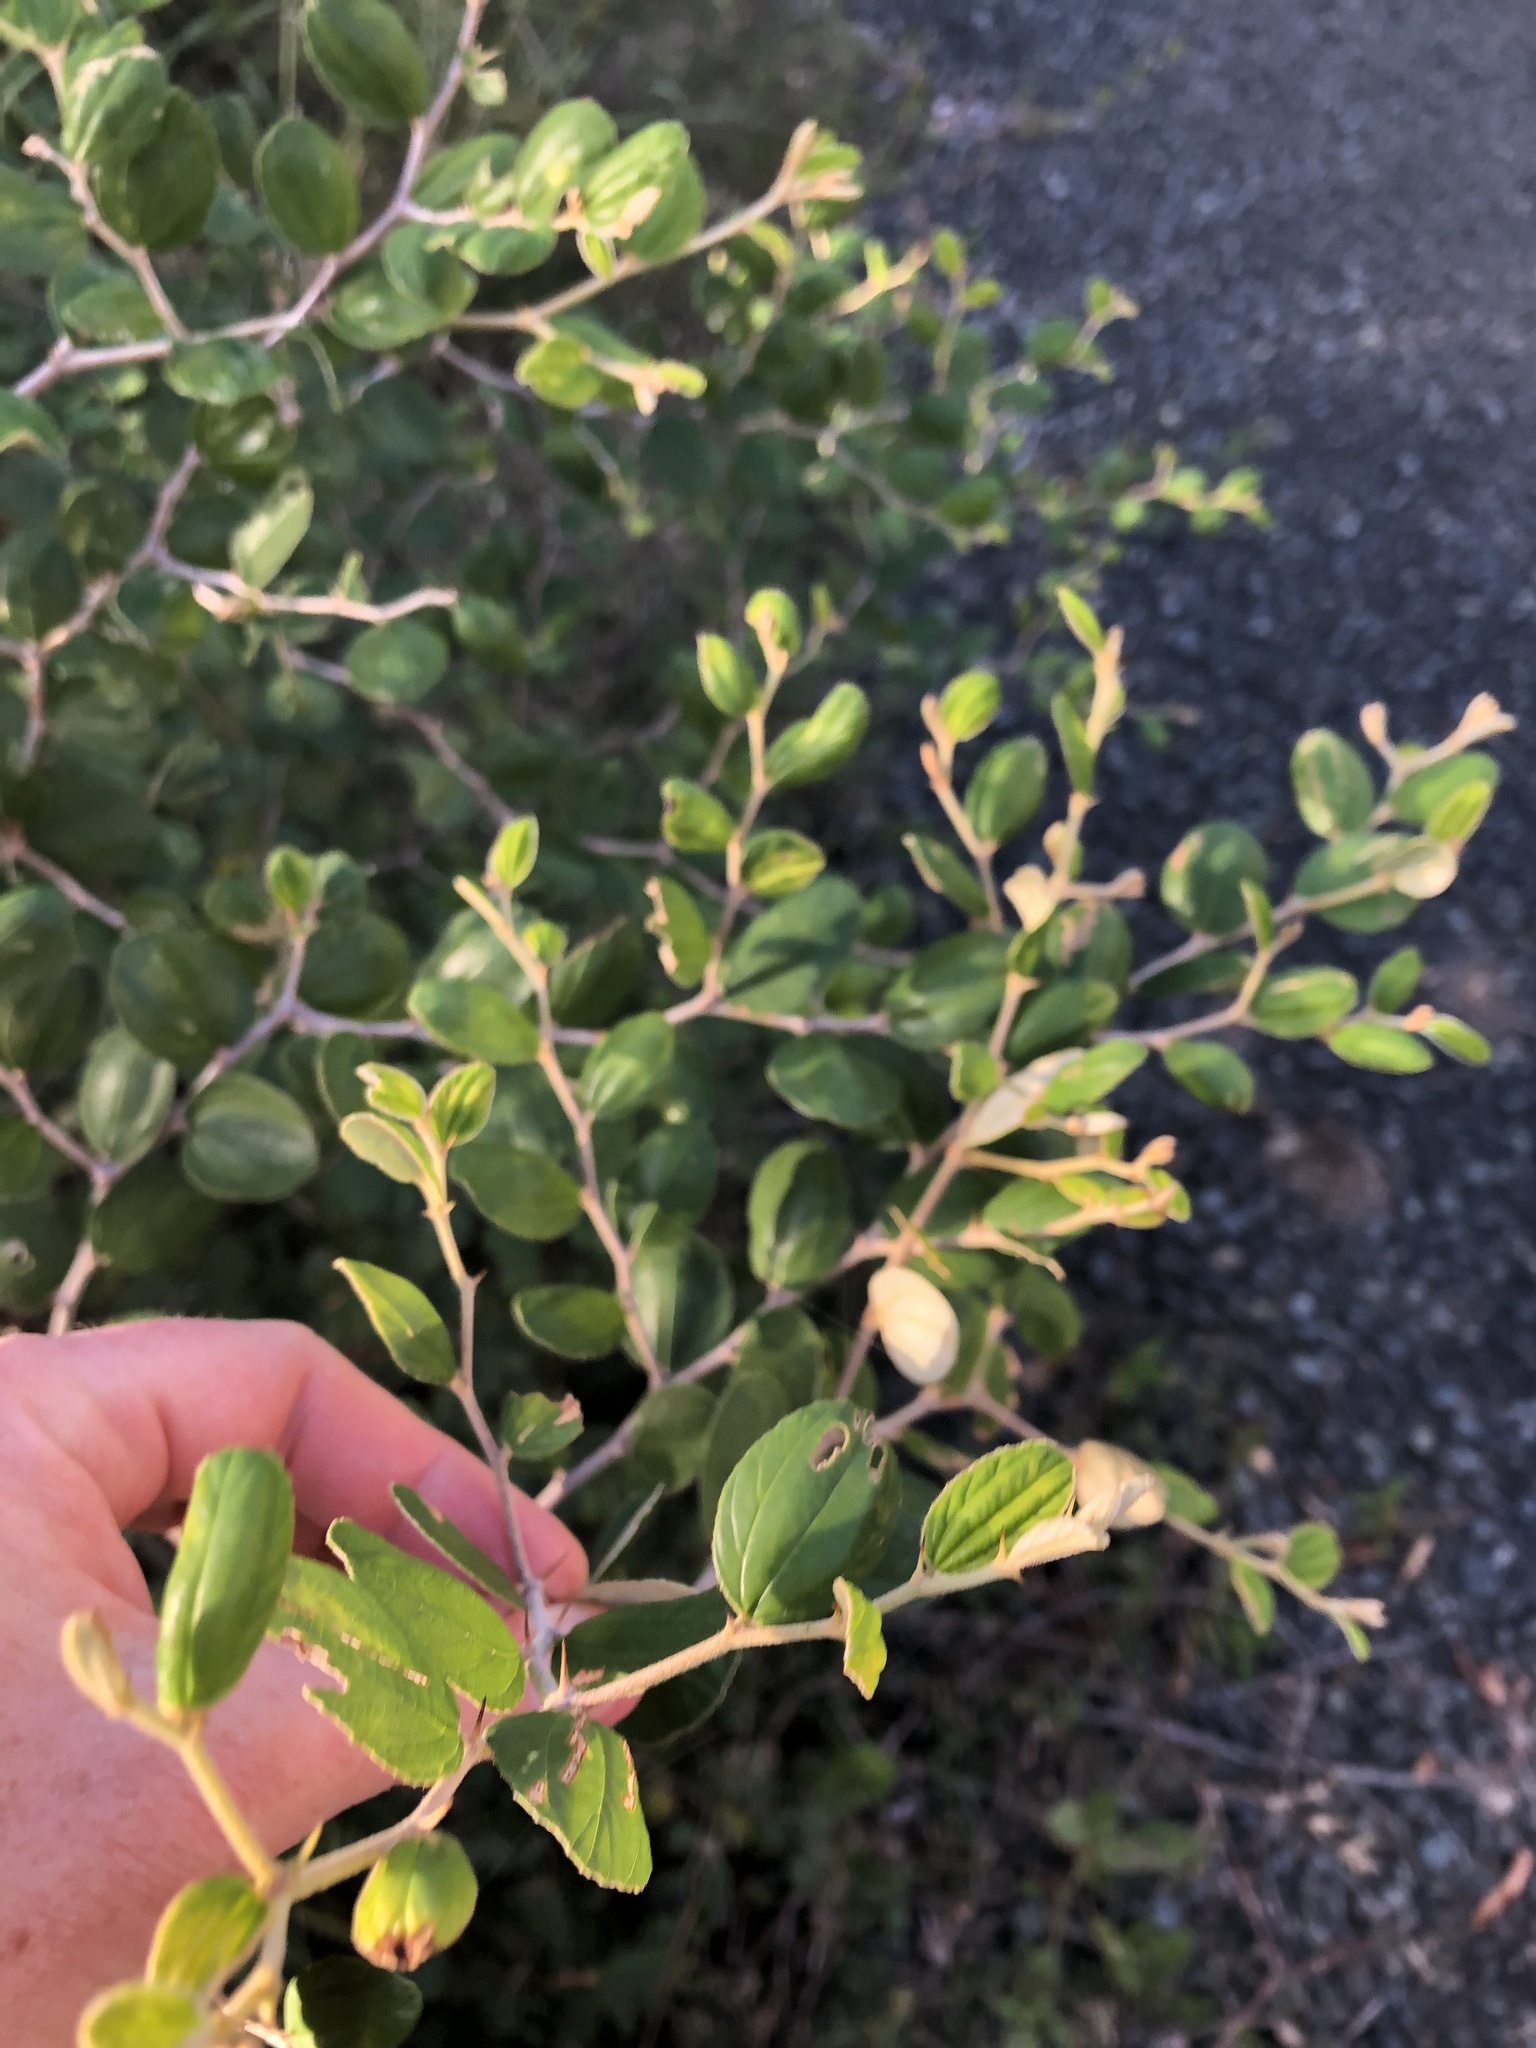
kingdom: Plantae
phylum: Tracheophyta
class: Magnoliopsida
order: Rosales
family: Rhamnaceae
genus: Ziziphus
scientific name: Ziziphus mauritiana
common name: Indian jujube
